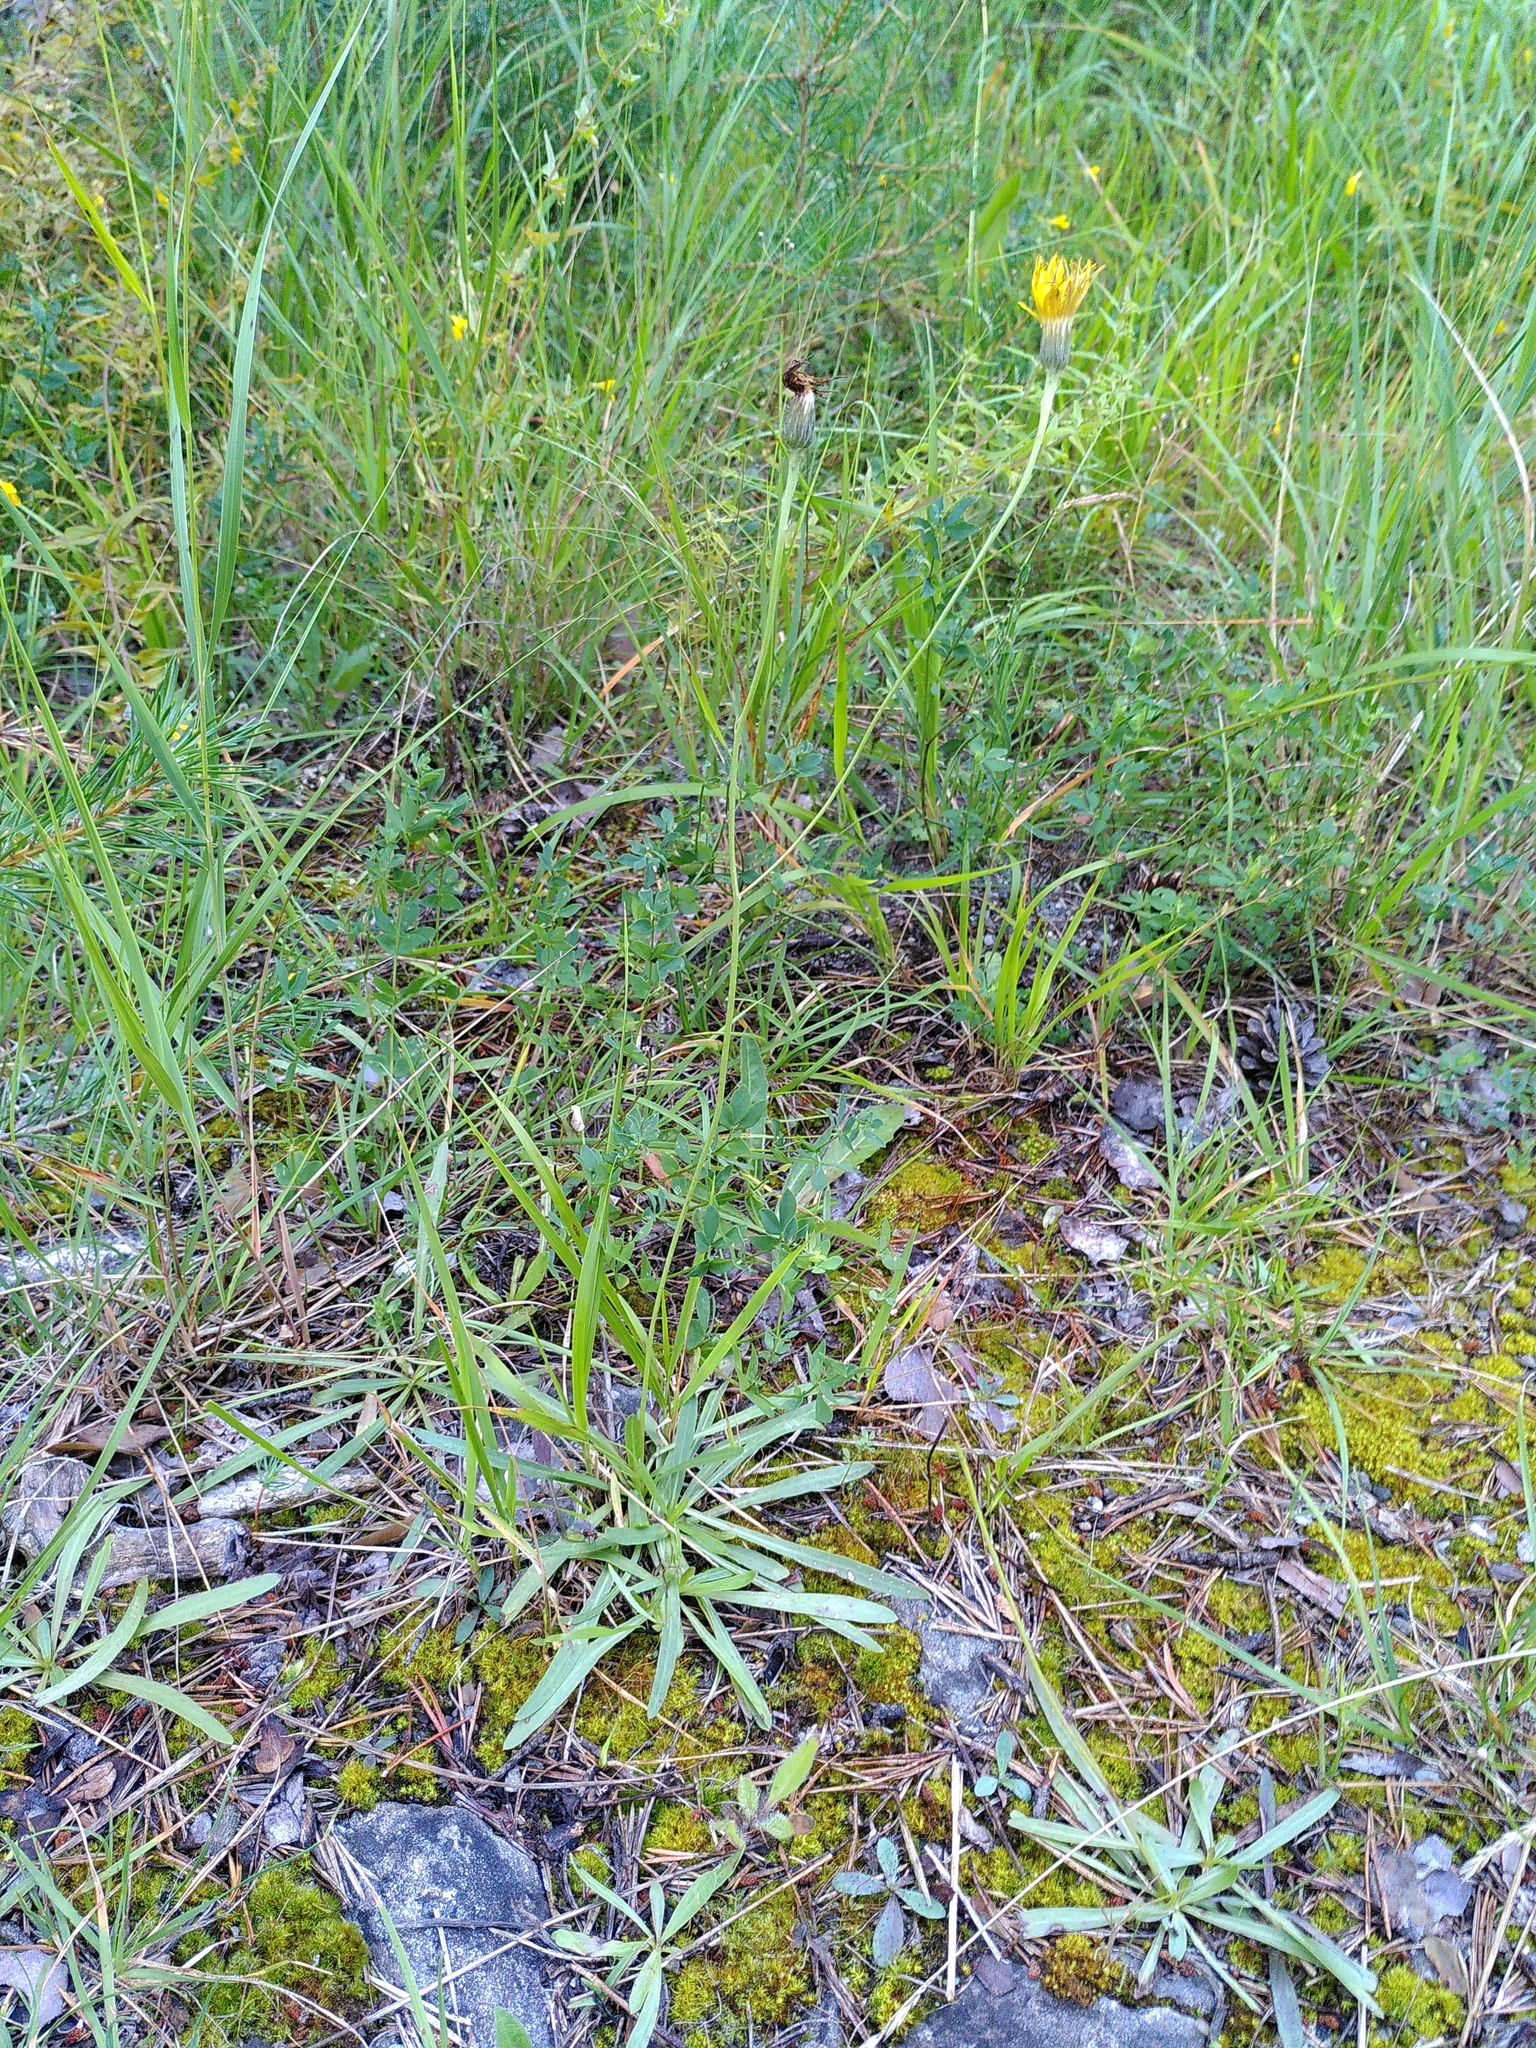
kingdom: Plantae
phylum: Tracheophyta
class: Magnoliopsida
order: Asterales
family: Asteraceae
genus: Tolpis
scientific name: Tolpis staticifolia
